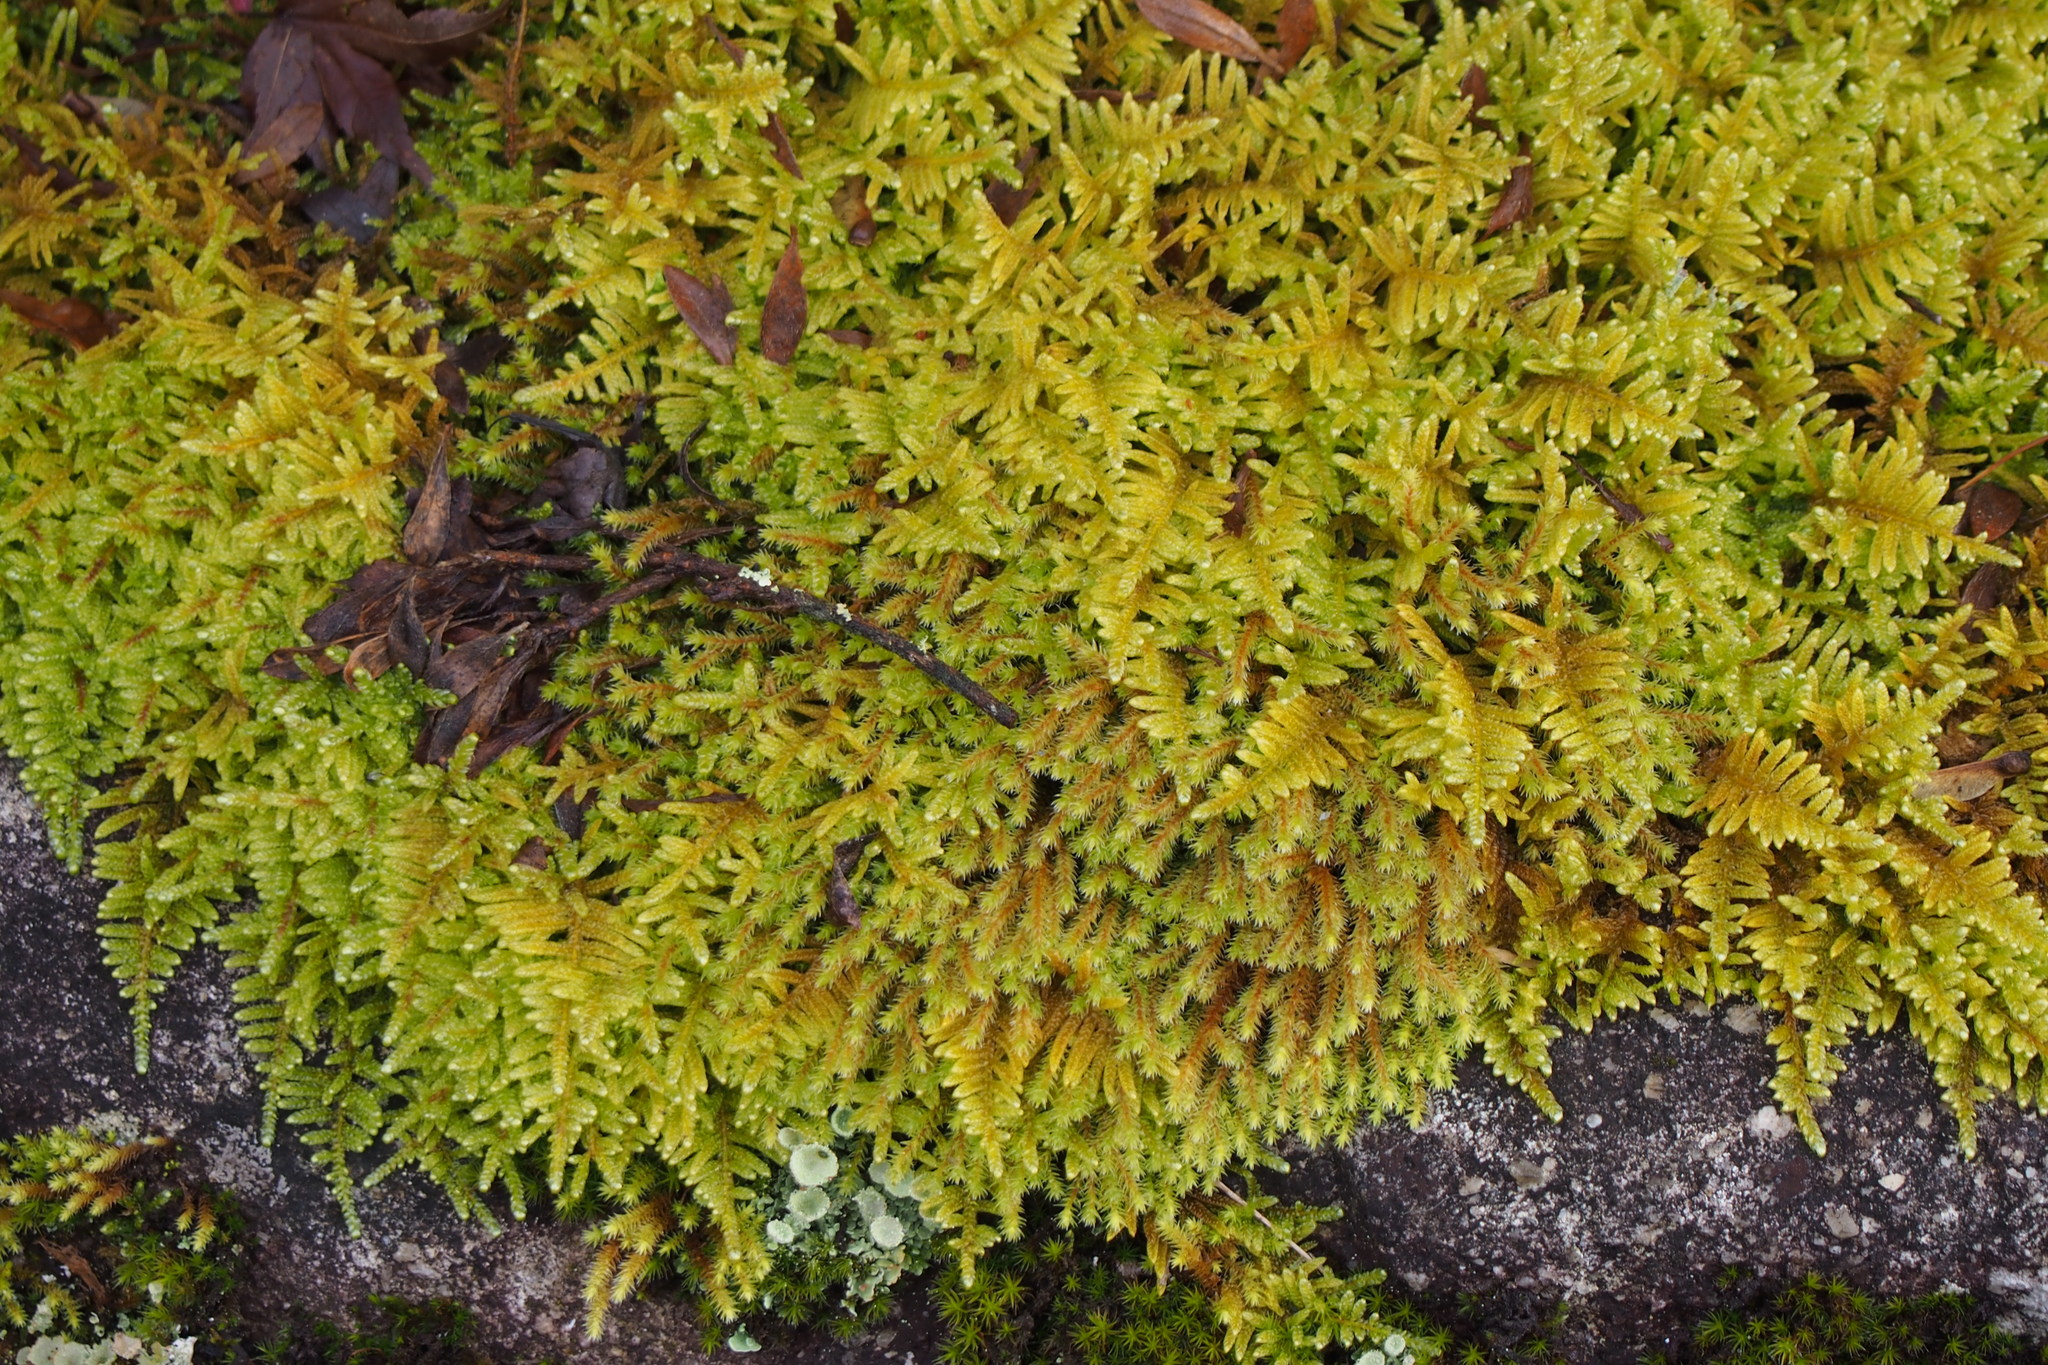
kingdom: Plantae
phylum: Bryophyta
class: Bryopsida
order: Hypnales
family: Hypnaceae
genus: Hypnum
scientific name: Hypnum plumaeforme
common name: Cypress-leaved plaitmoss
